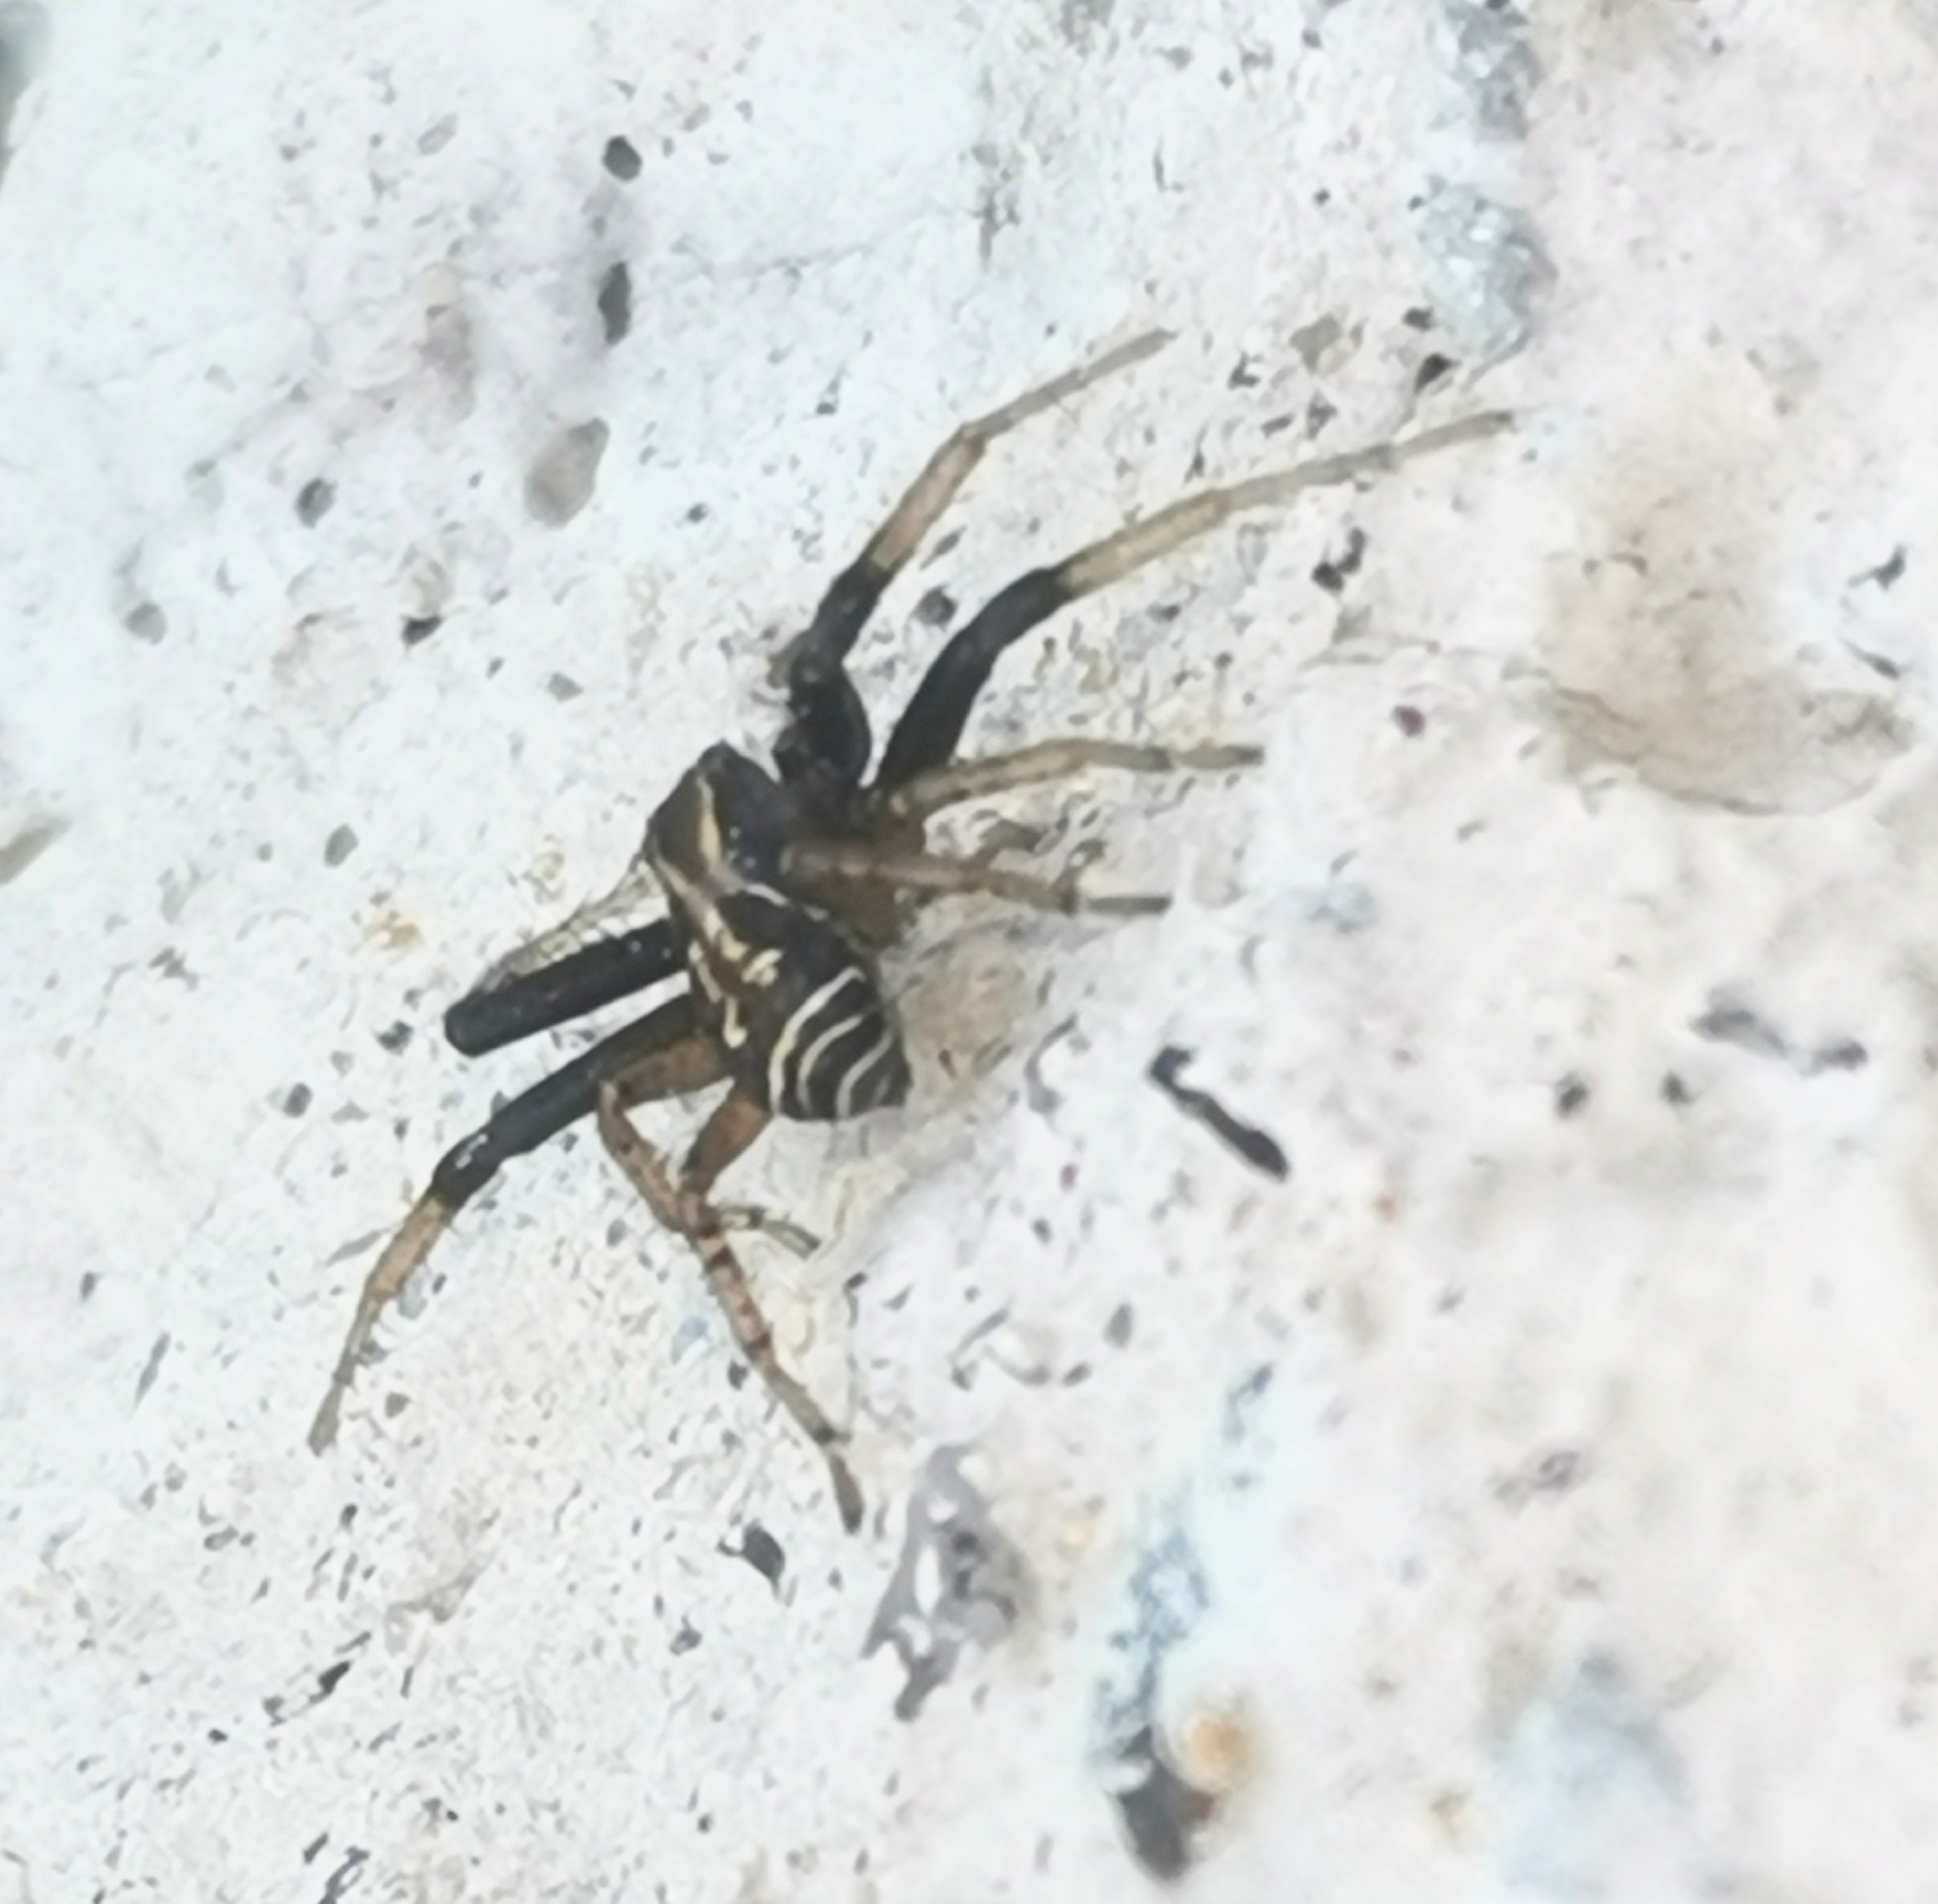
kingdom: Animalia
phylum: Arthropoda
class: Arachnida
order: Araneae
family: Thomisidae
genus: Xysticus
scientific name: Xysticus ulmi
